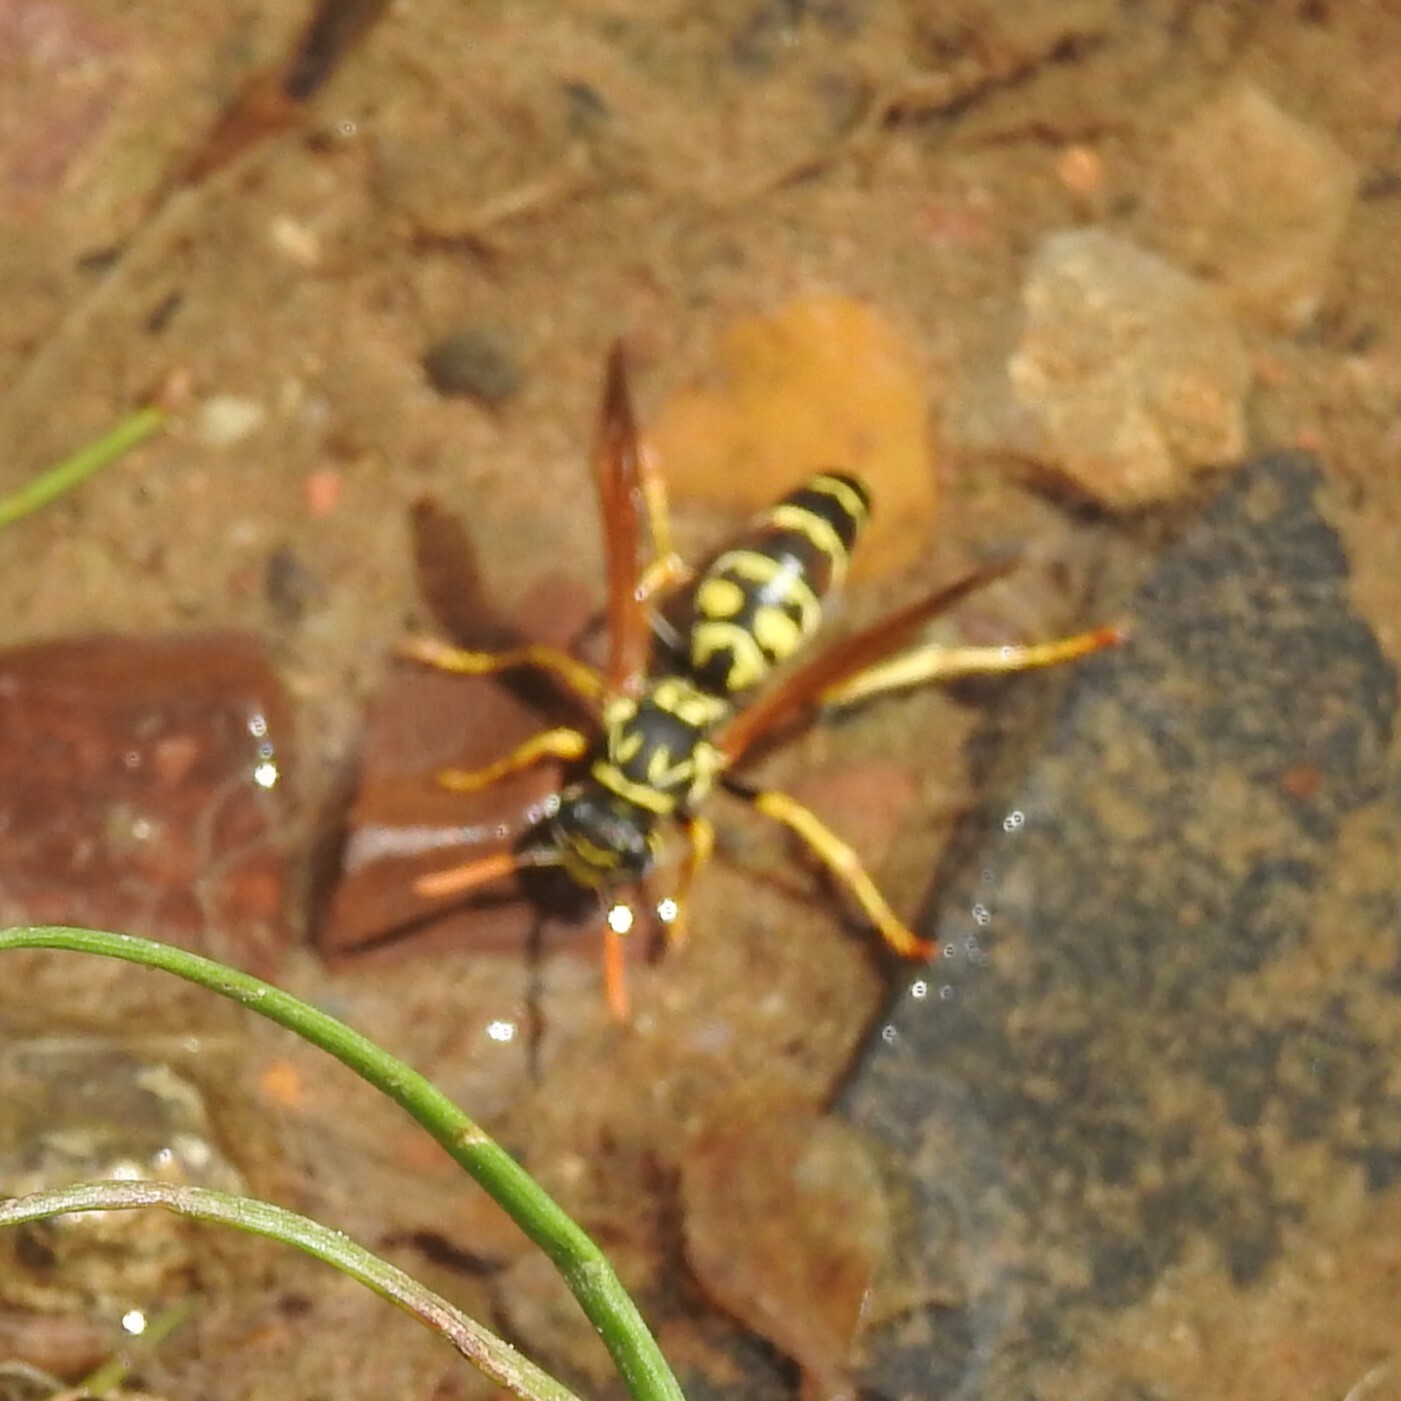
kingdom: Animalia
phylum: Arthropoda
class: Insecta
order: Hymenoptera
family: Eumenidae
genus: Polistes
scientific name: Polistes dominula
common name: Paper wasp
